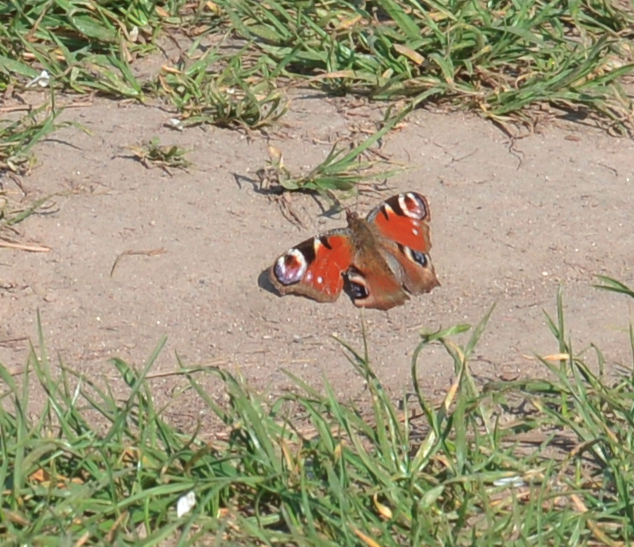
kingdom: Animalia
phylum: Arthropoda
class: Insecta
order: Lepidoptera
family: Nymphalidae
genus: Aglais
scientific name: Aglais io
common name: Peacock
